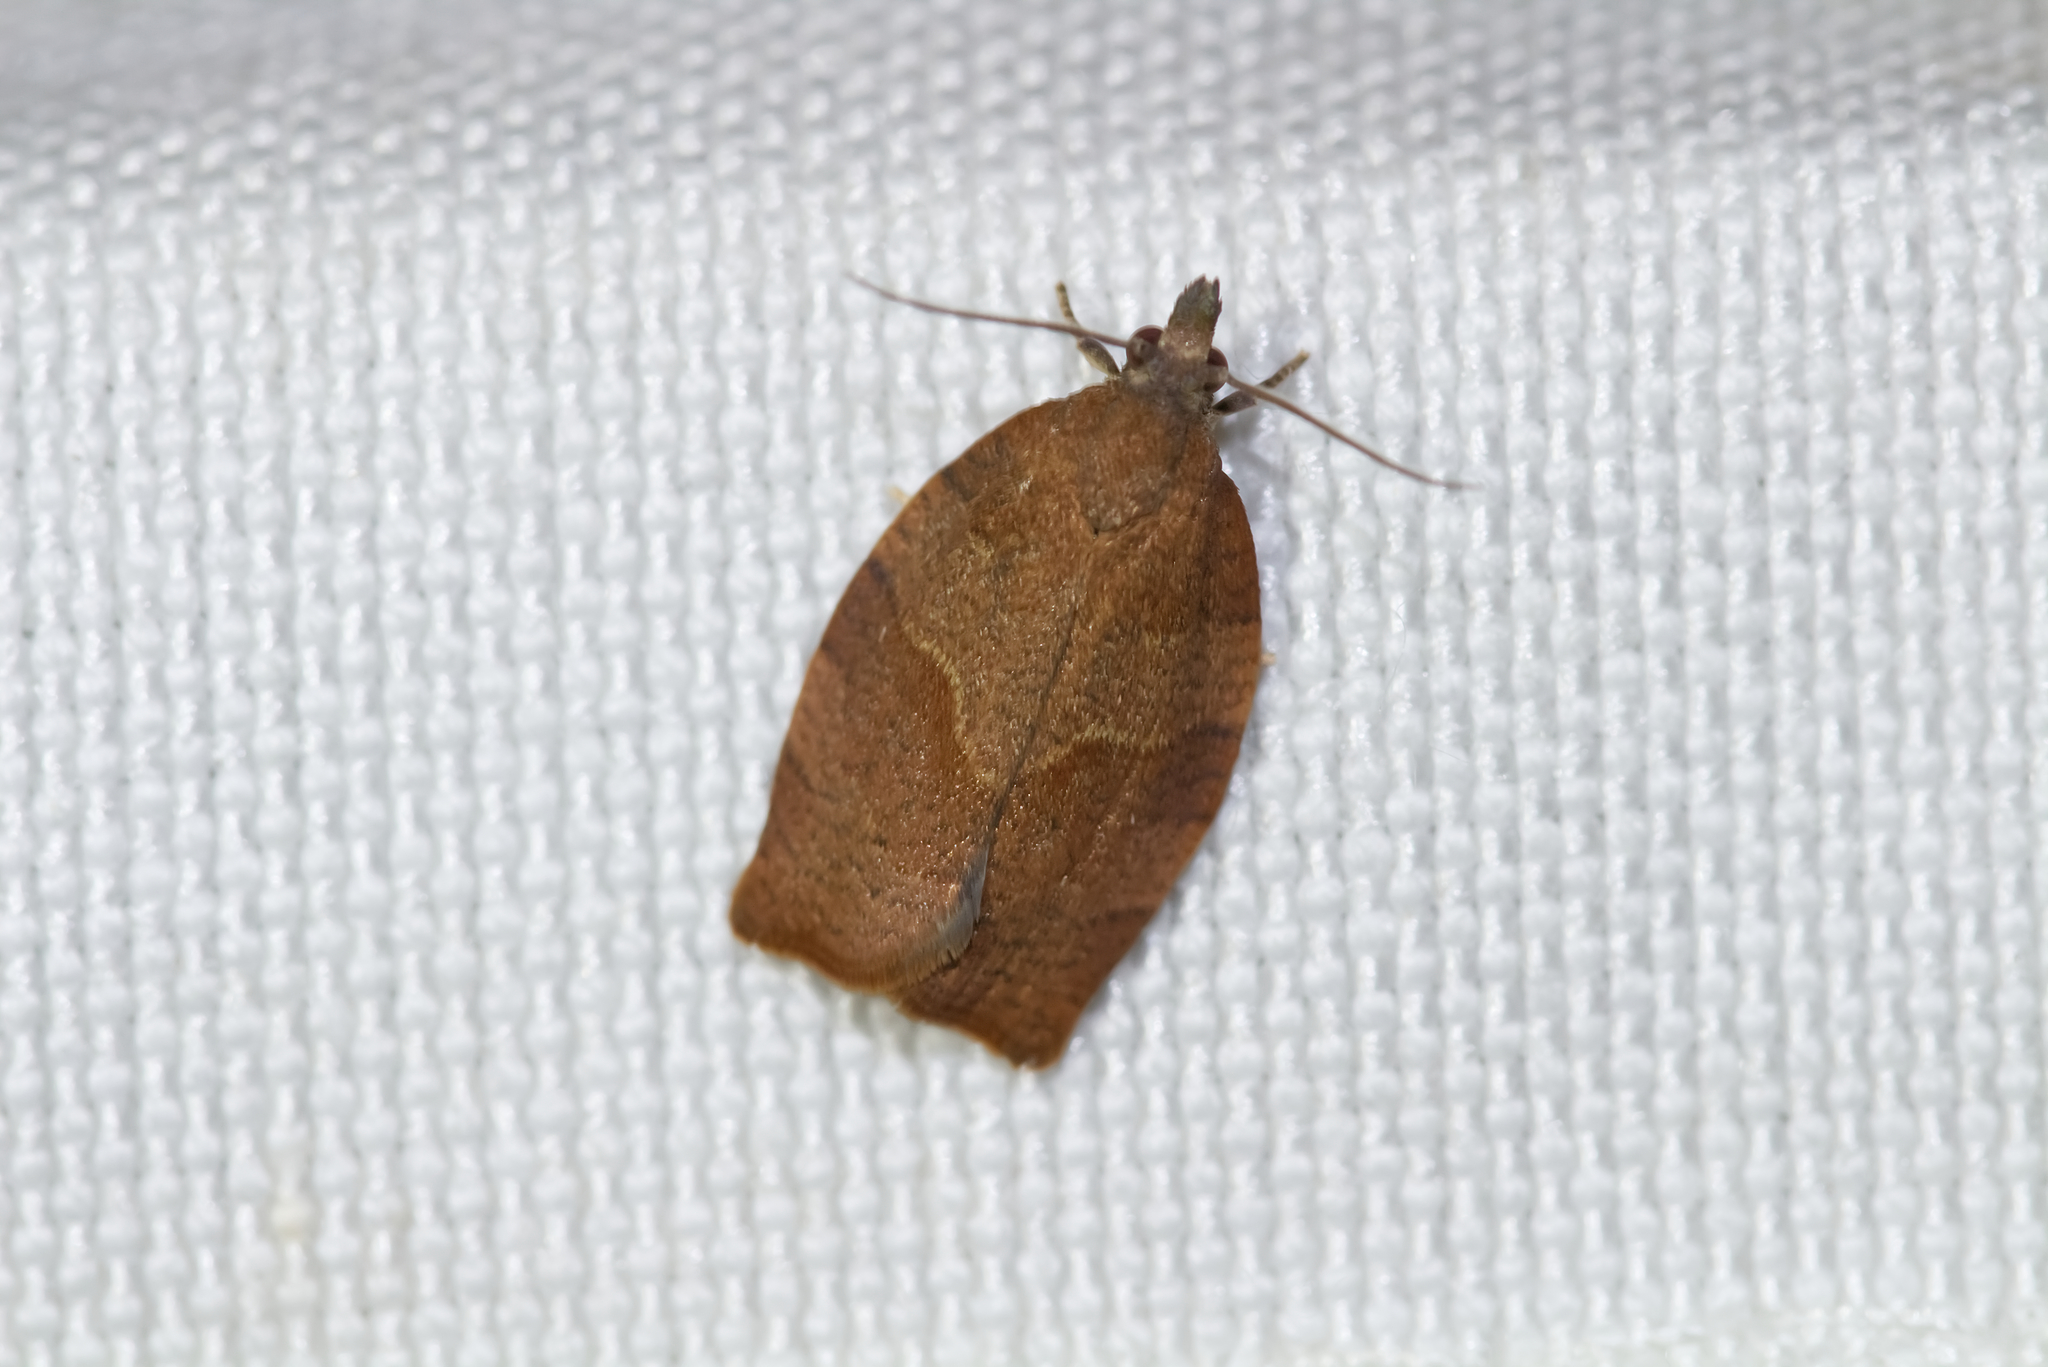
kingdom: Animalia
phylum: Arthropoda
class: Insecta
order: Lepidoptera
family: Tortricidae
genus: Pandemis
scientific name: Pandemis heparana
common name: Dark fruit-tree tortrix
